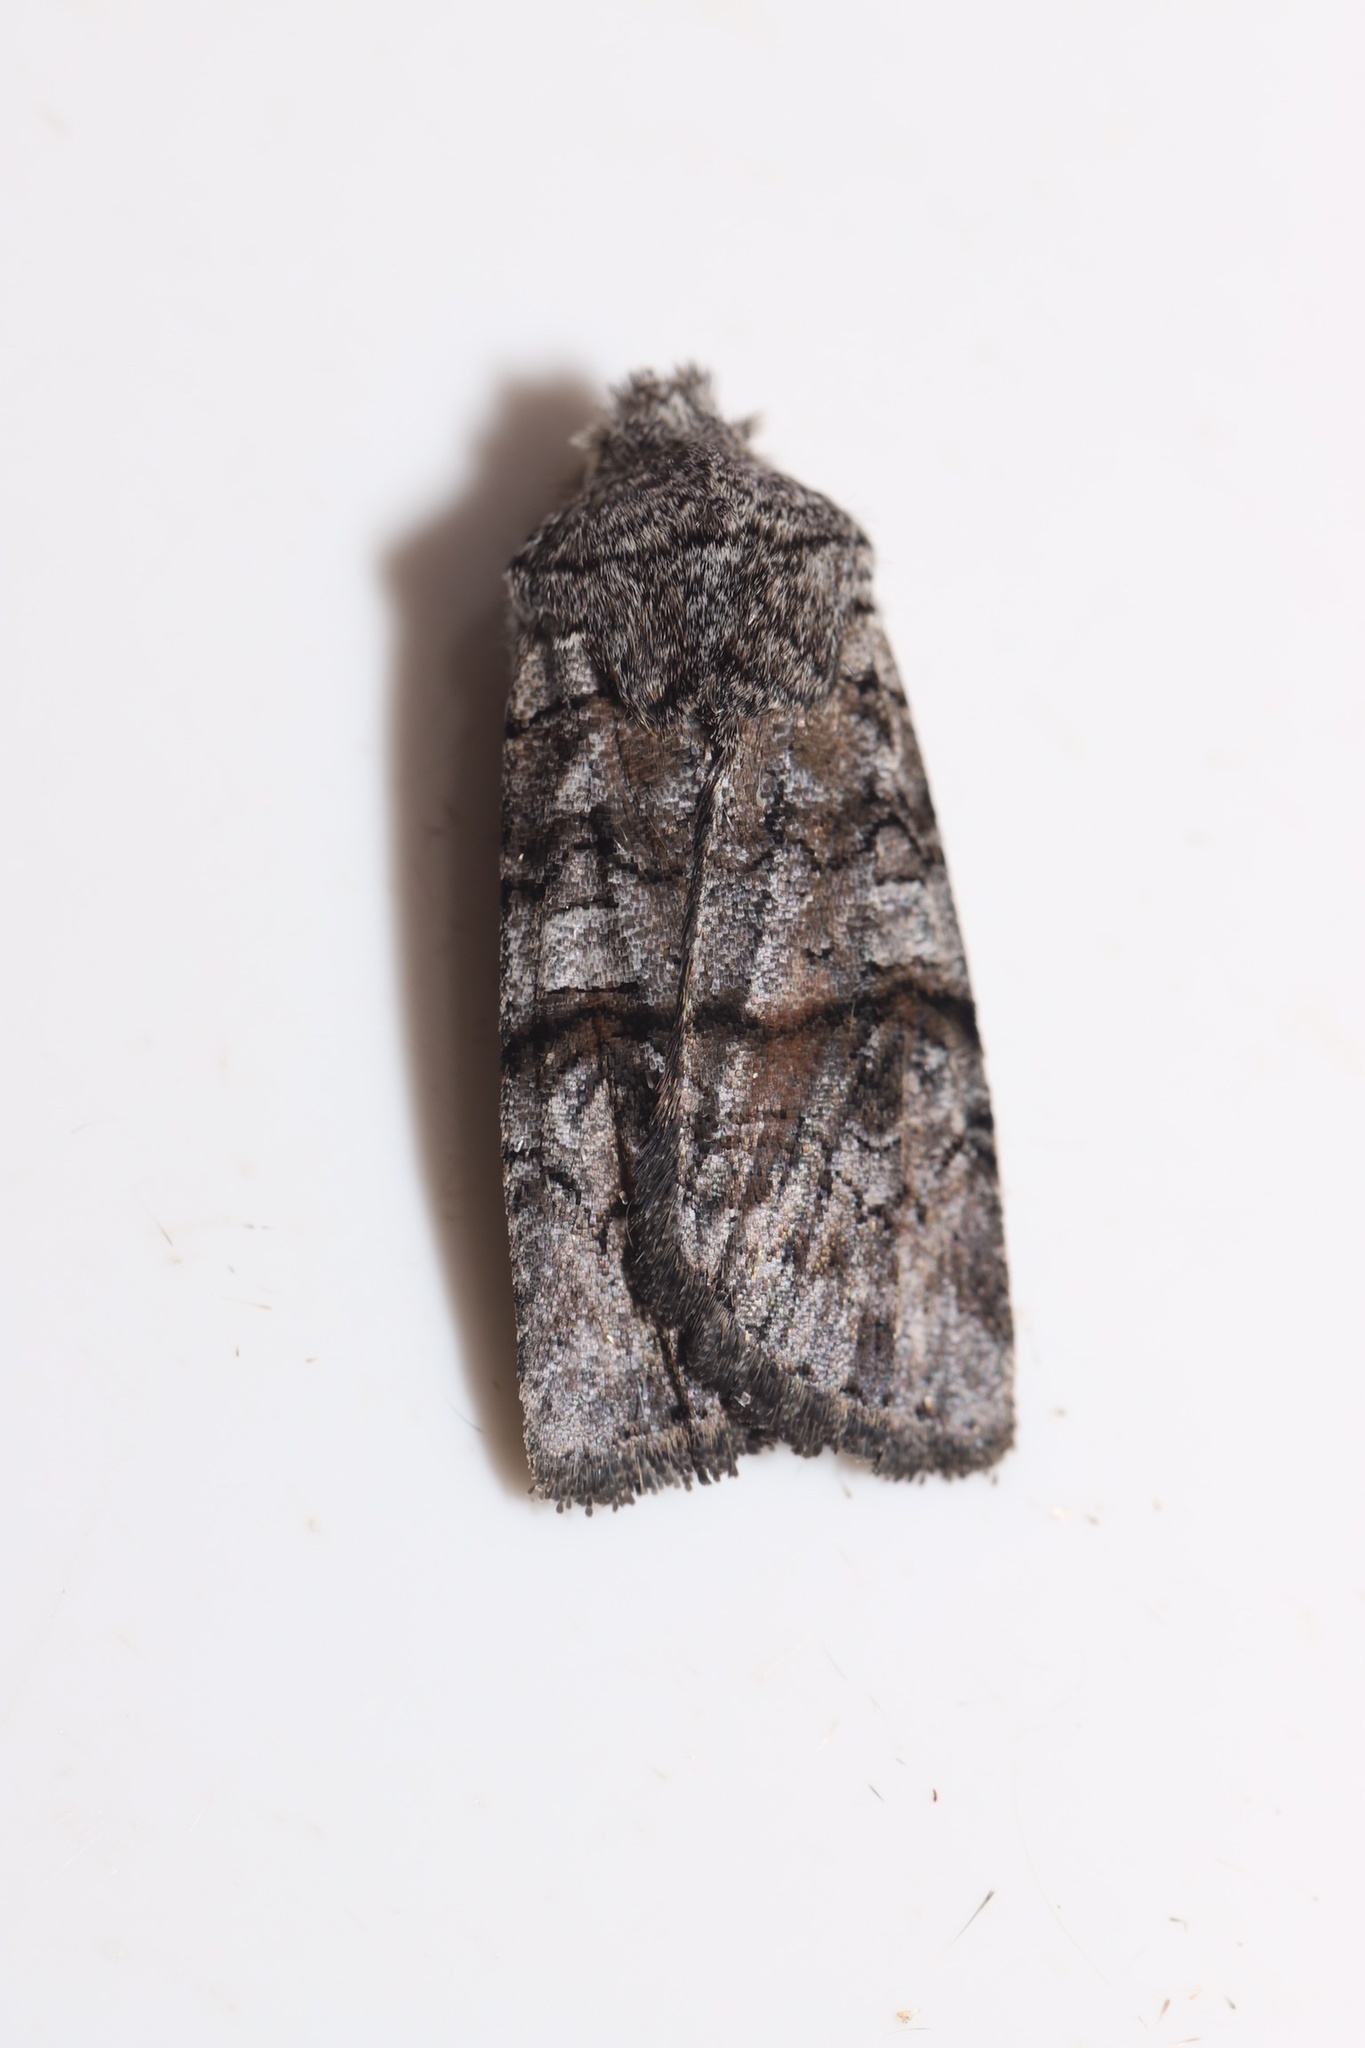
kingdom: Animalia
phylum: Arthropoda
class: Insecta
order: Lepidoptera
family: Noctuidae
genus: Litholomia
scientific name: Litholomia napaea
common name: False pinion moth
